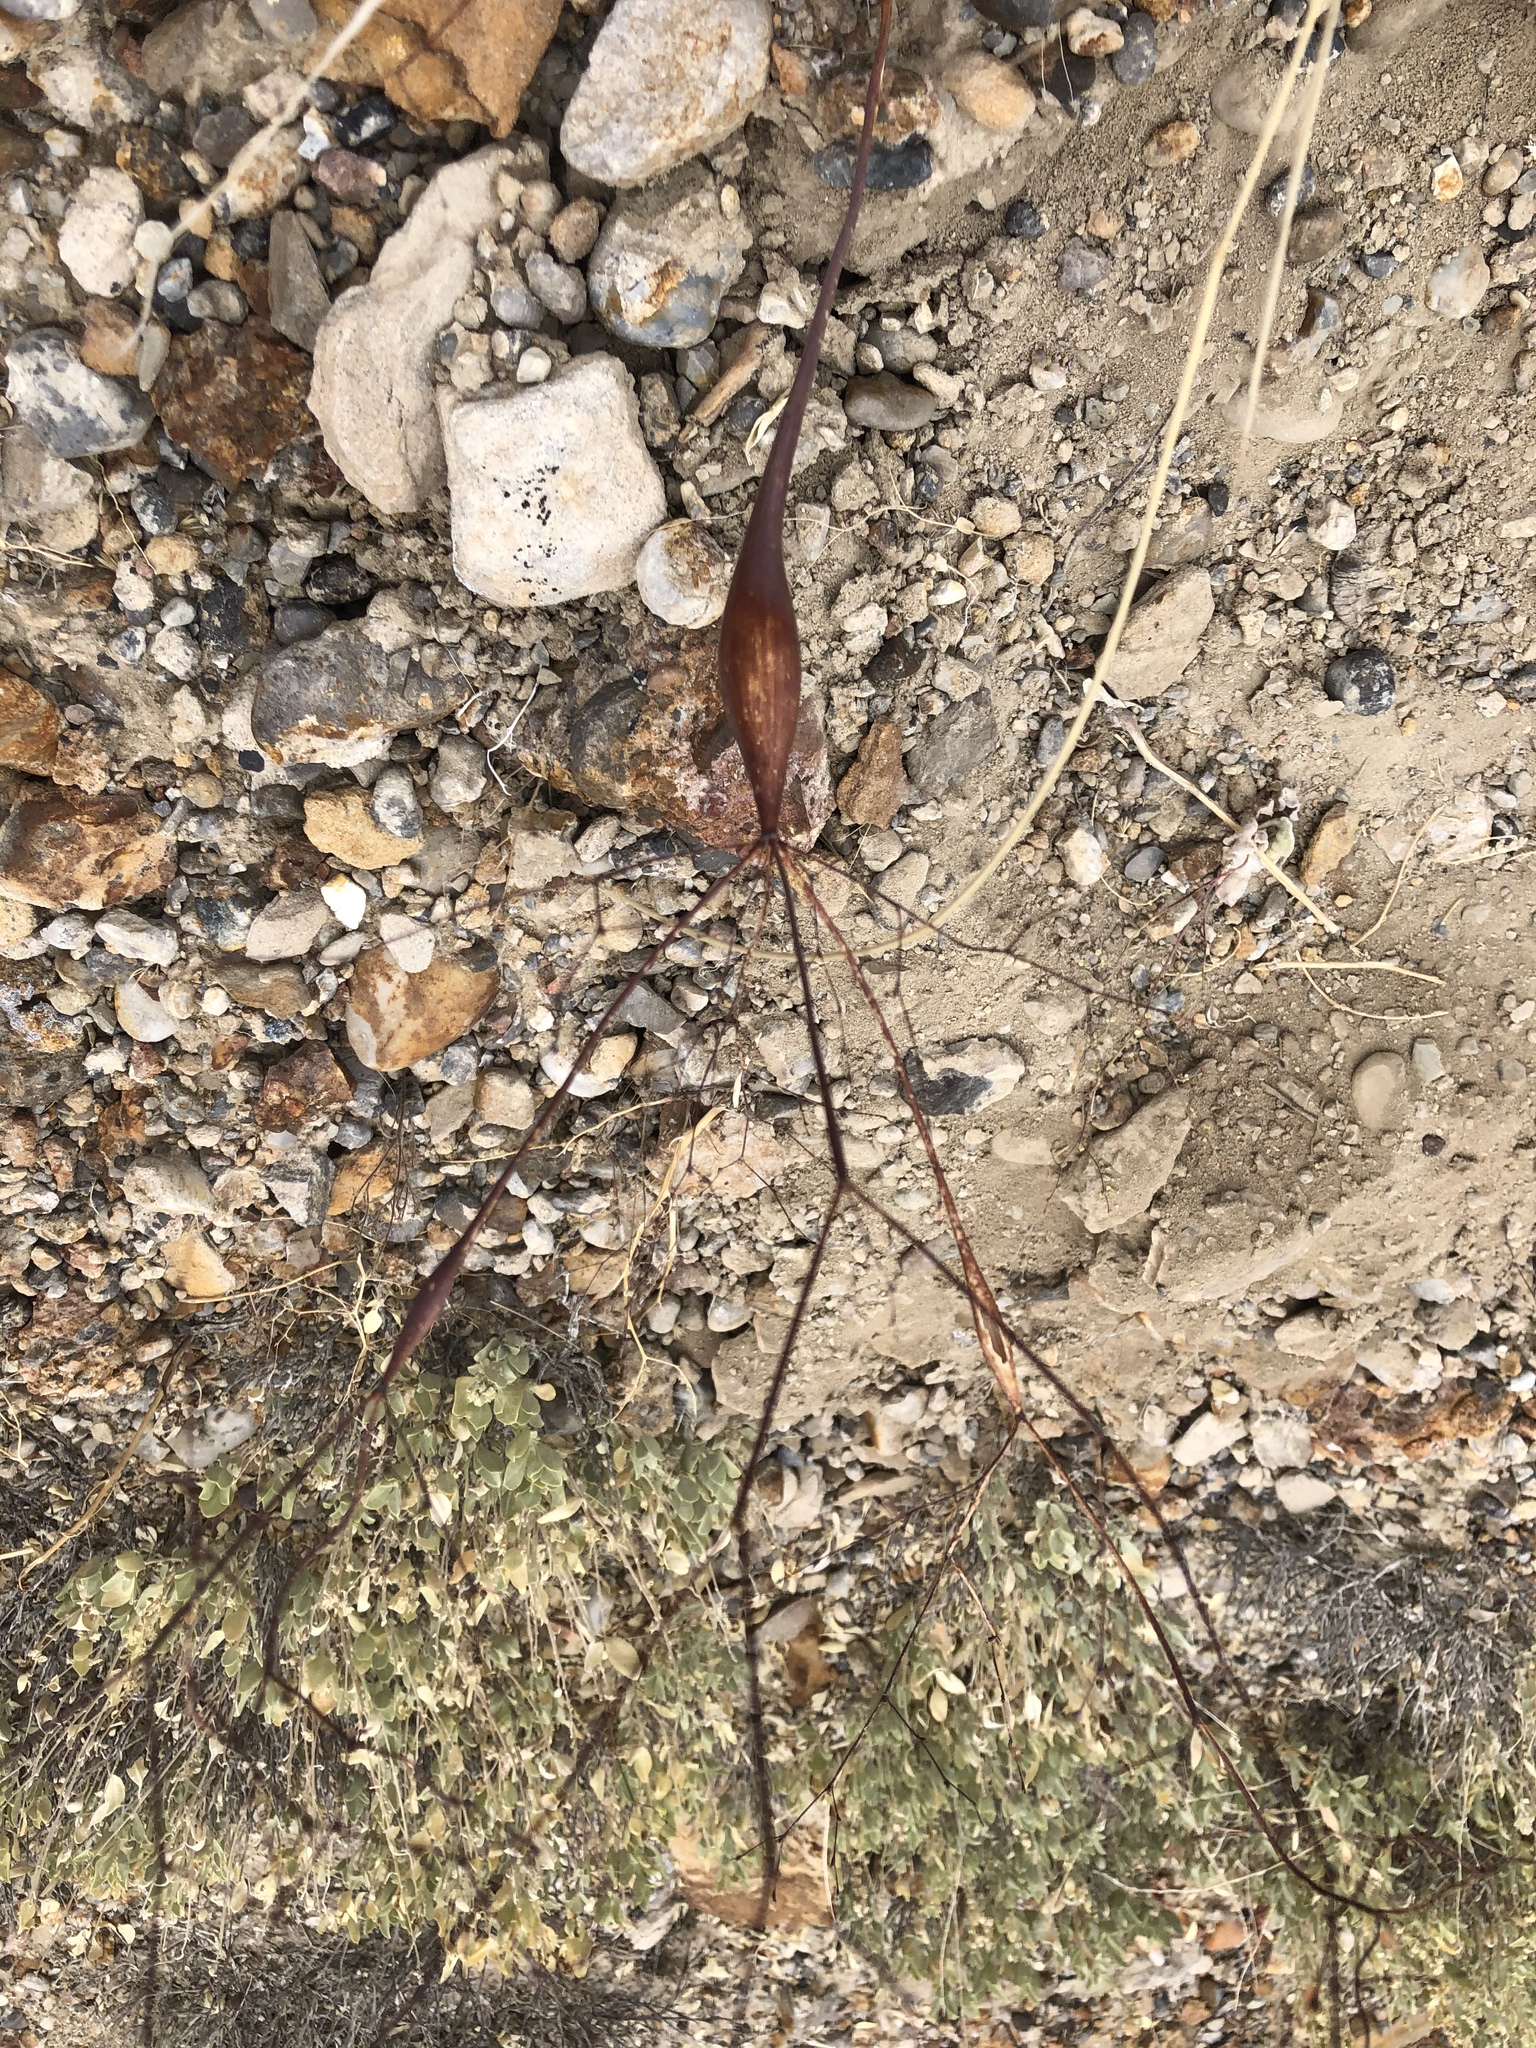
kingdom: Plantae
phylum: Tracheophyta
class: Magnoliopsida
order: Caryophyllales
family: Polygonaceae
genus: Eriogonum
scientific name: Eriogonum fusiforme
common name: Grand valley desert trumpet
